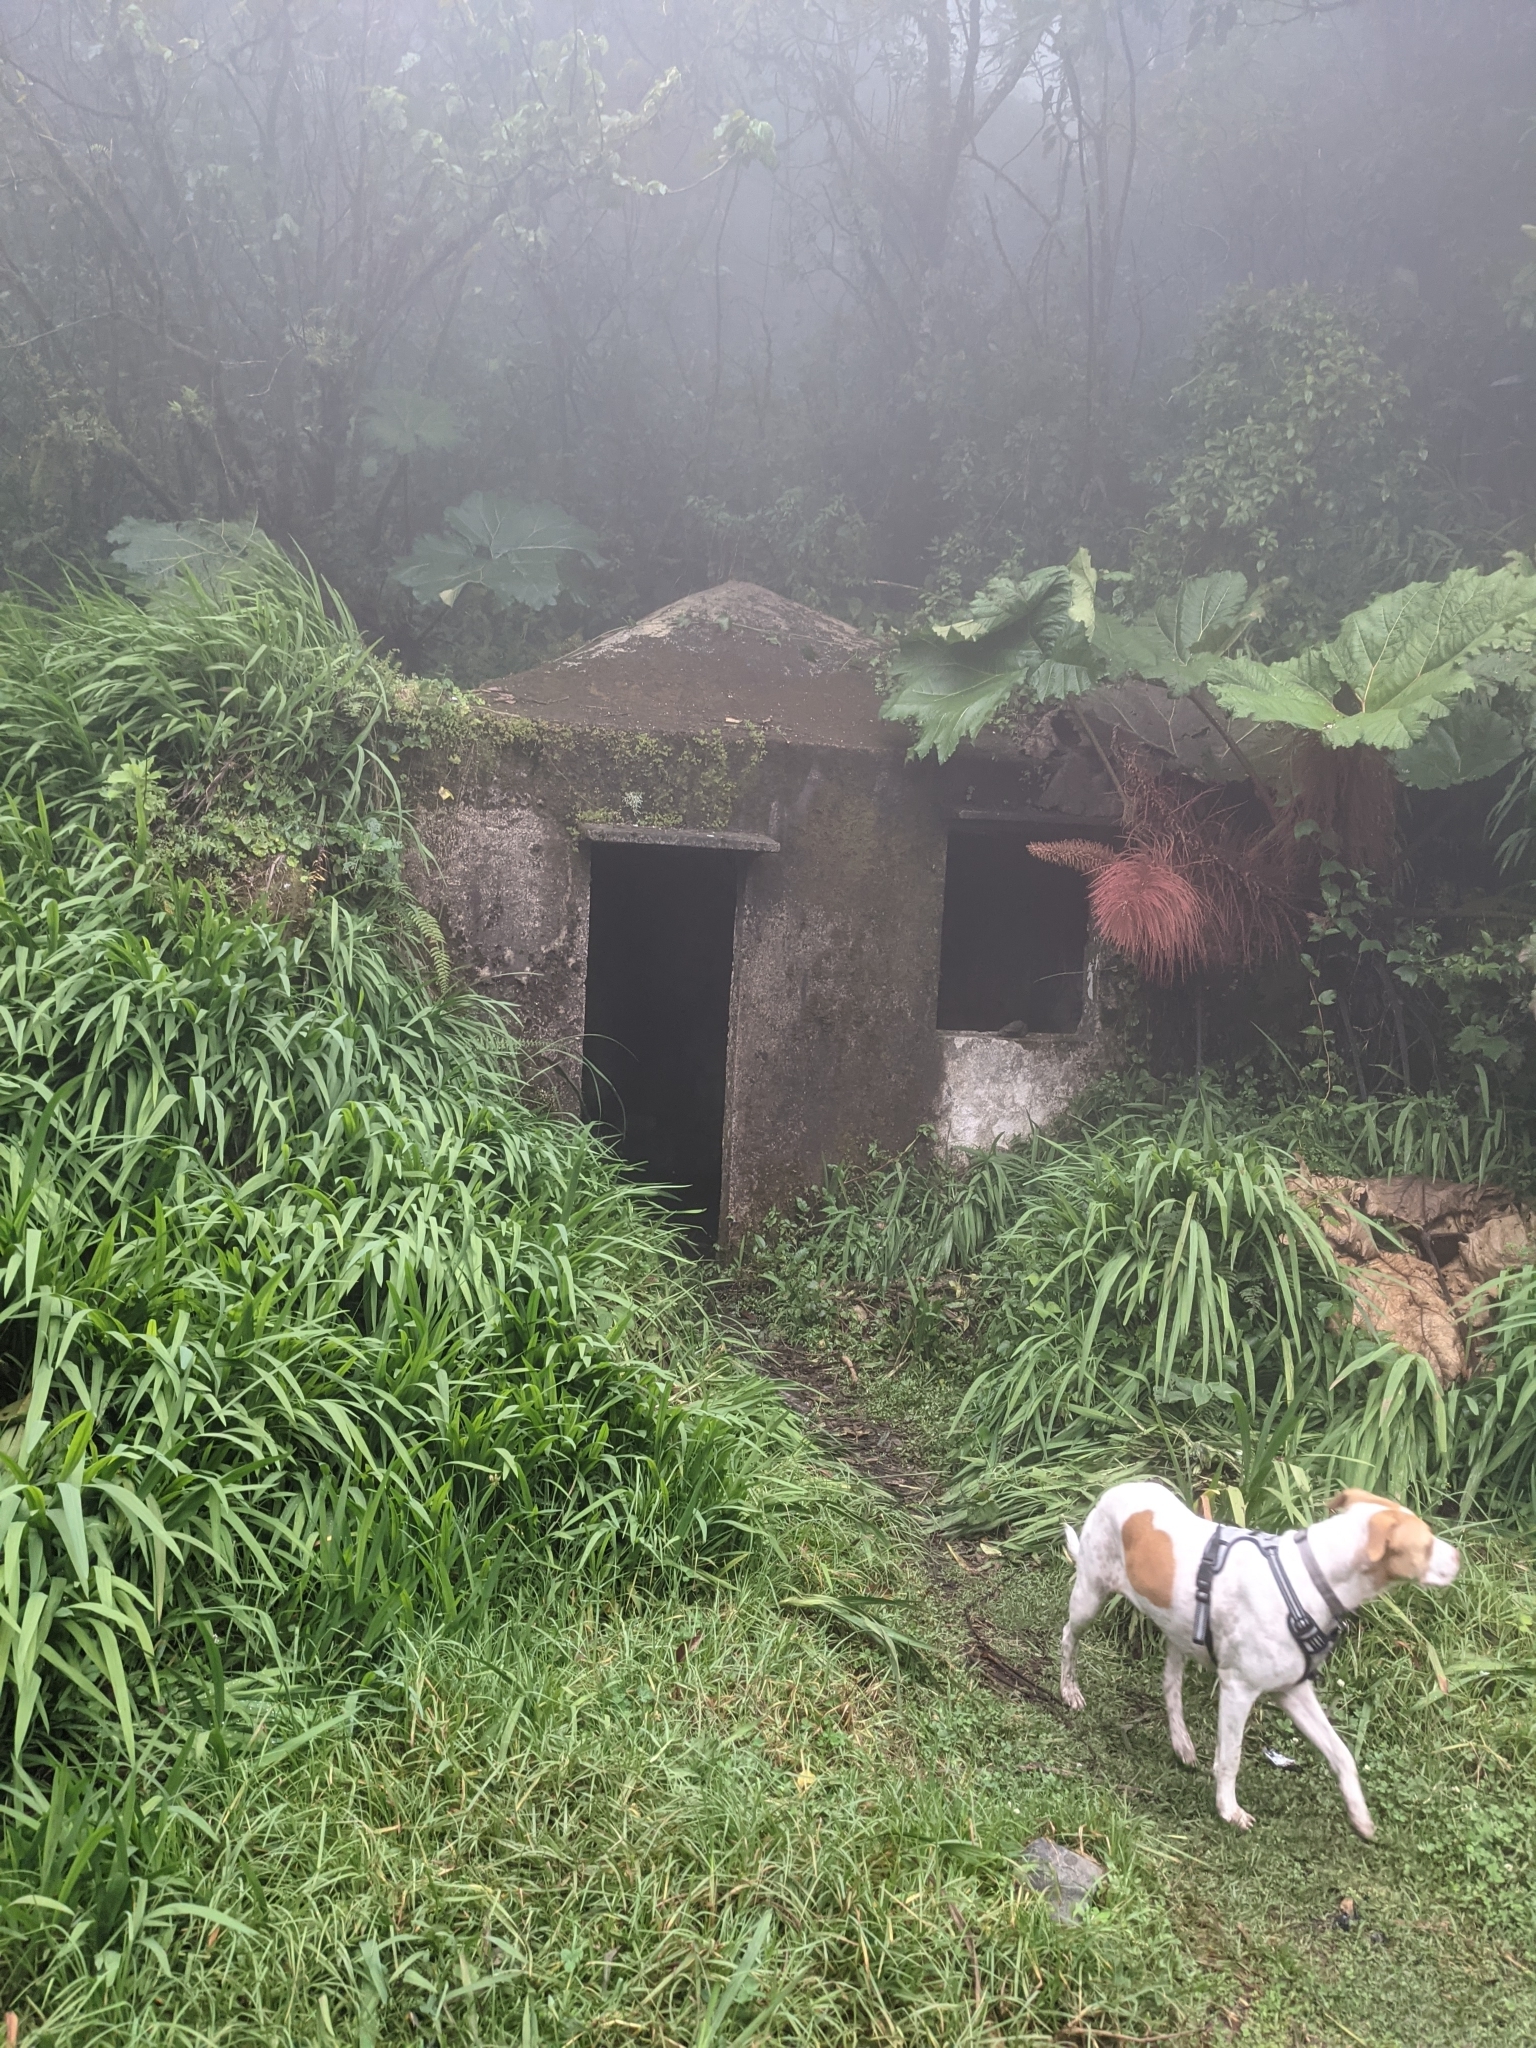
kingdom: Plantae
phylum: Tracheophyta
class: Liliopsida
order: Asparagales
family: Iridaceae
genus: Crocosmia
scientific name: Crocosmia crocosmiiflora
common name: Montbretia
